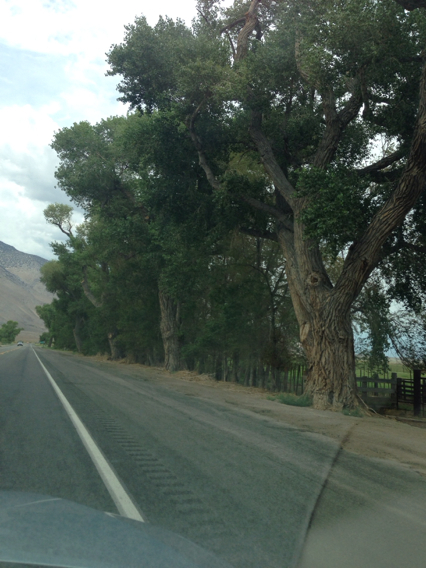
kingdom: Plantae
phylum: Tracheophyta
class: Magnoliopsida
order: Malpighiales
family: Salicaceae
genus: Populus
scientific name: Populus fremontii
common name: Fremont's cottonwood
